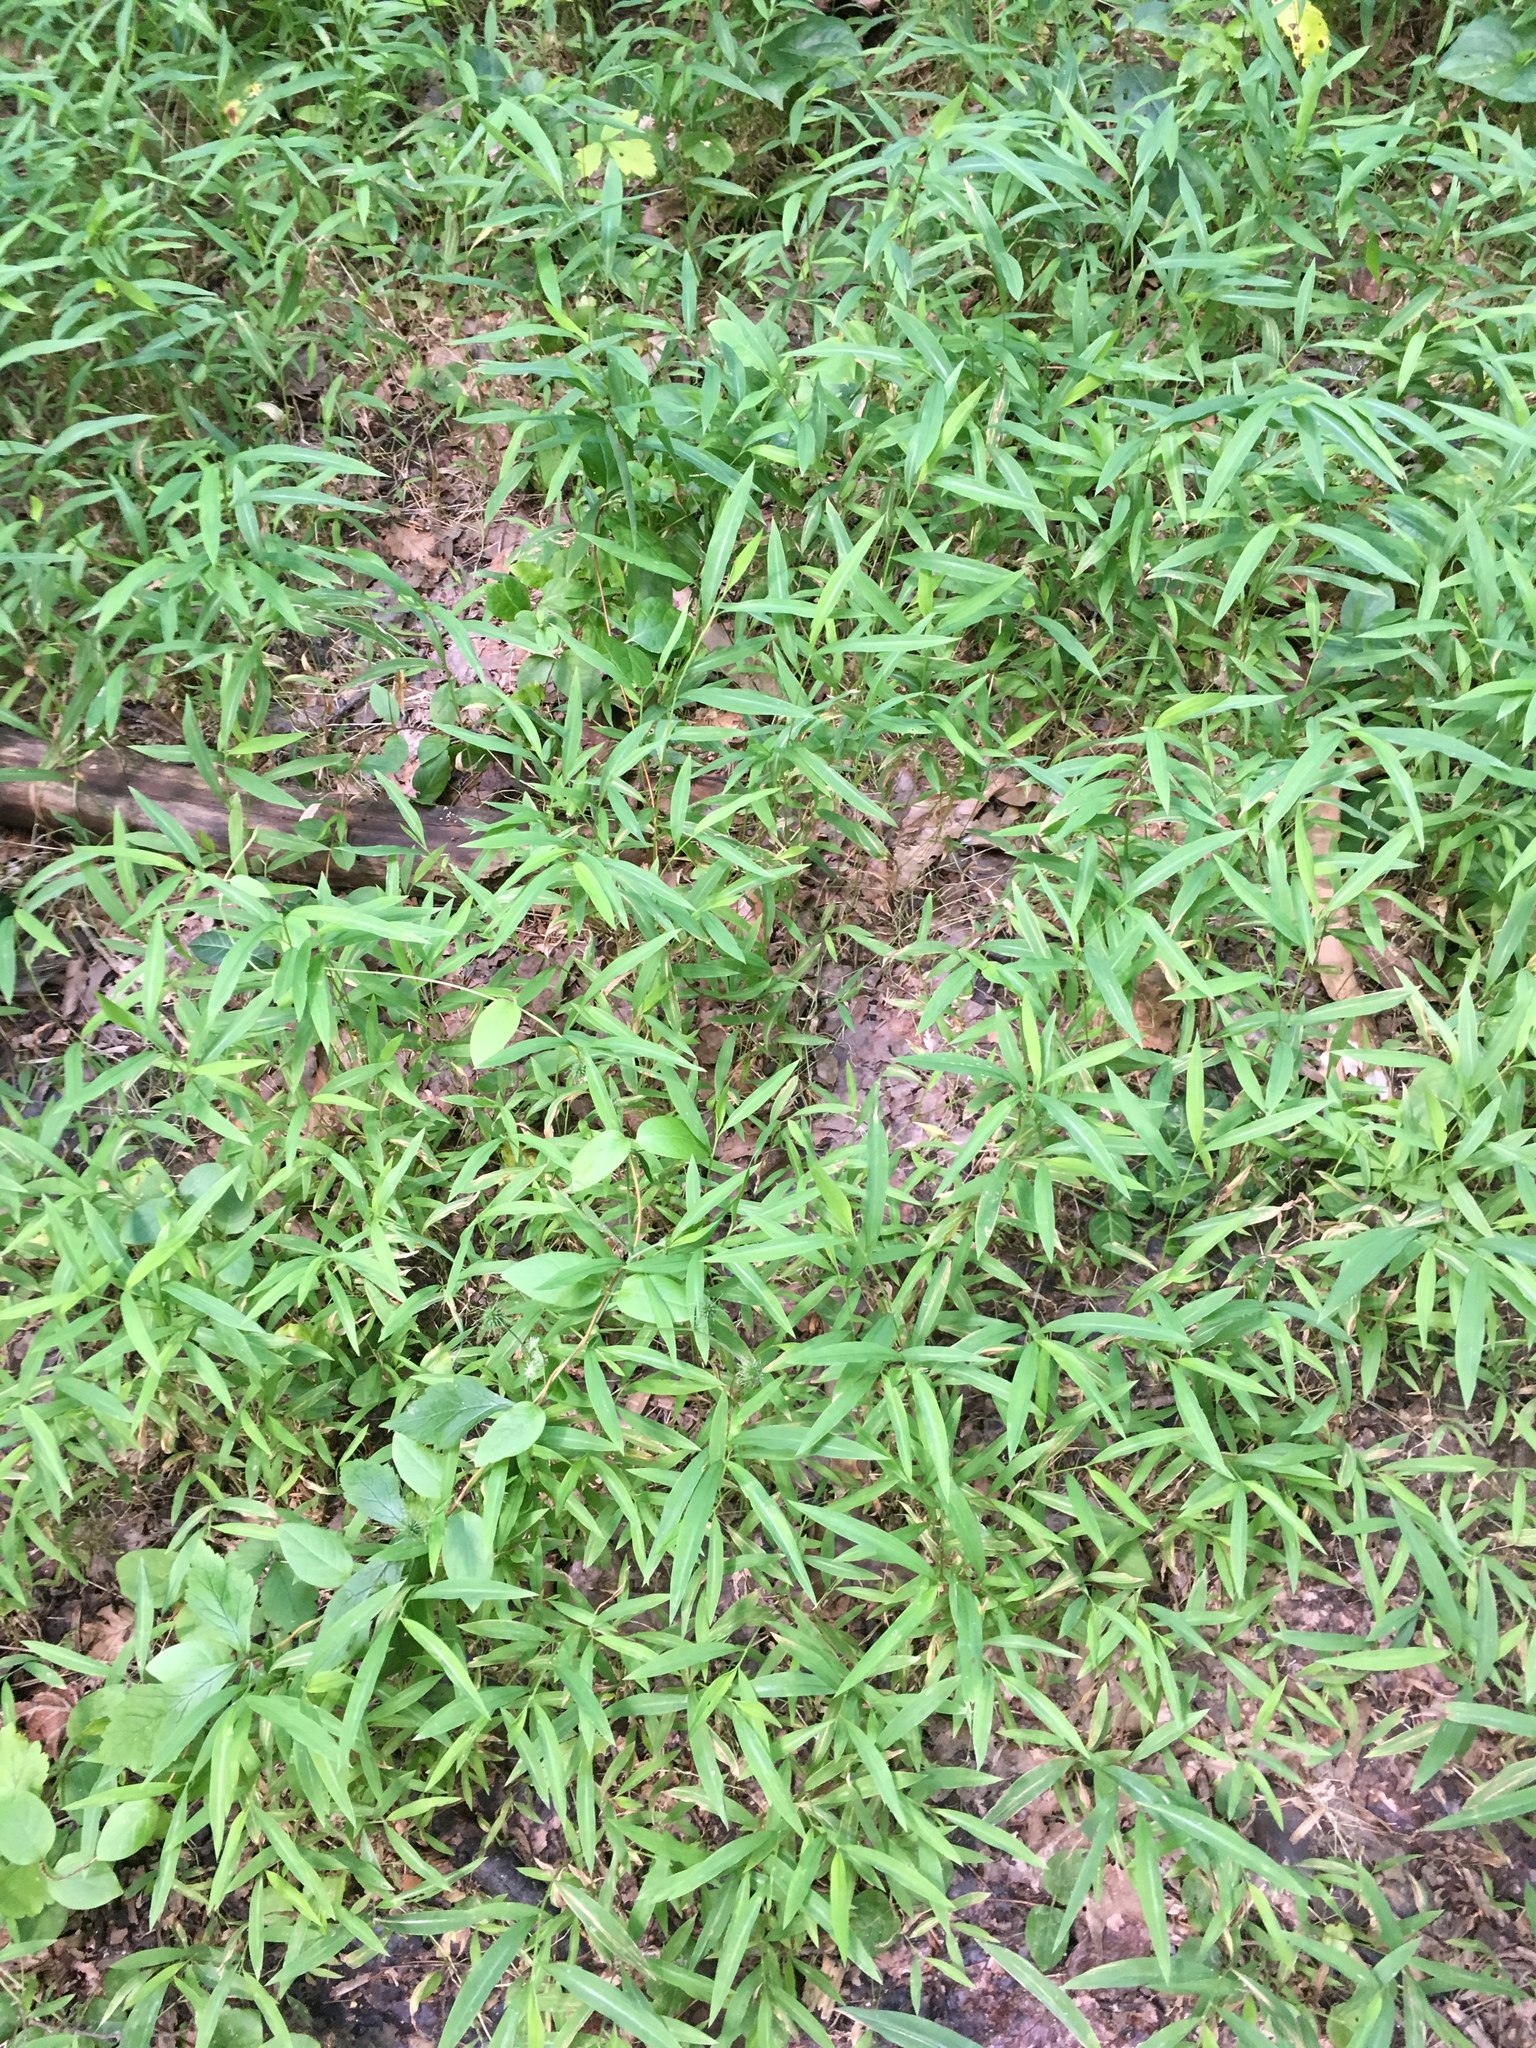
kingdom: Plantae
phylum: Tracheophyta
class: Liliopsida
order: Poales
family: Poaceae
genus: Microstegium
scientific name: Microstegium vimineum
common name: Japanese stiltgrass
